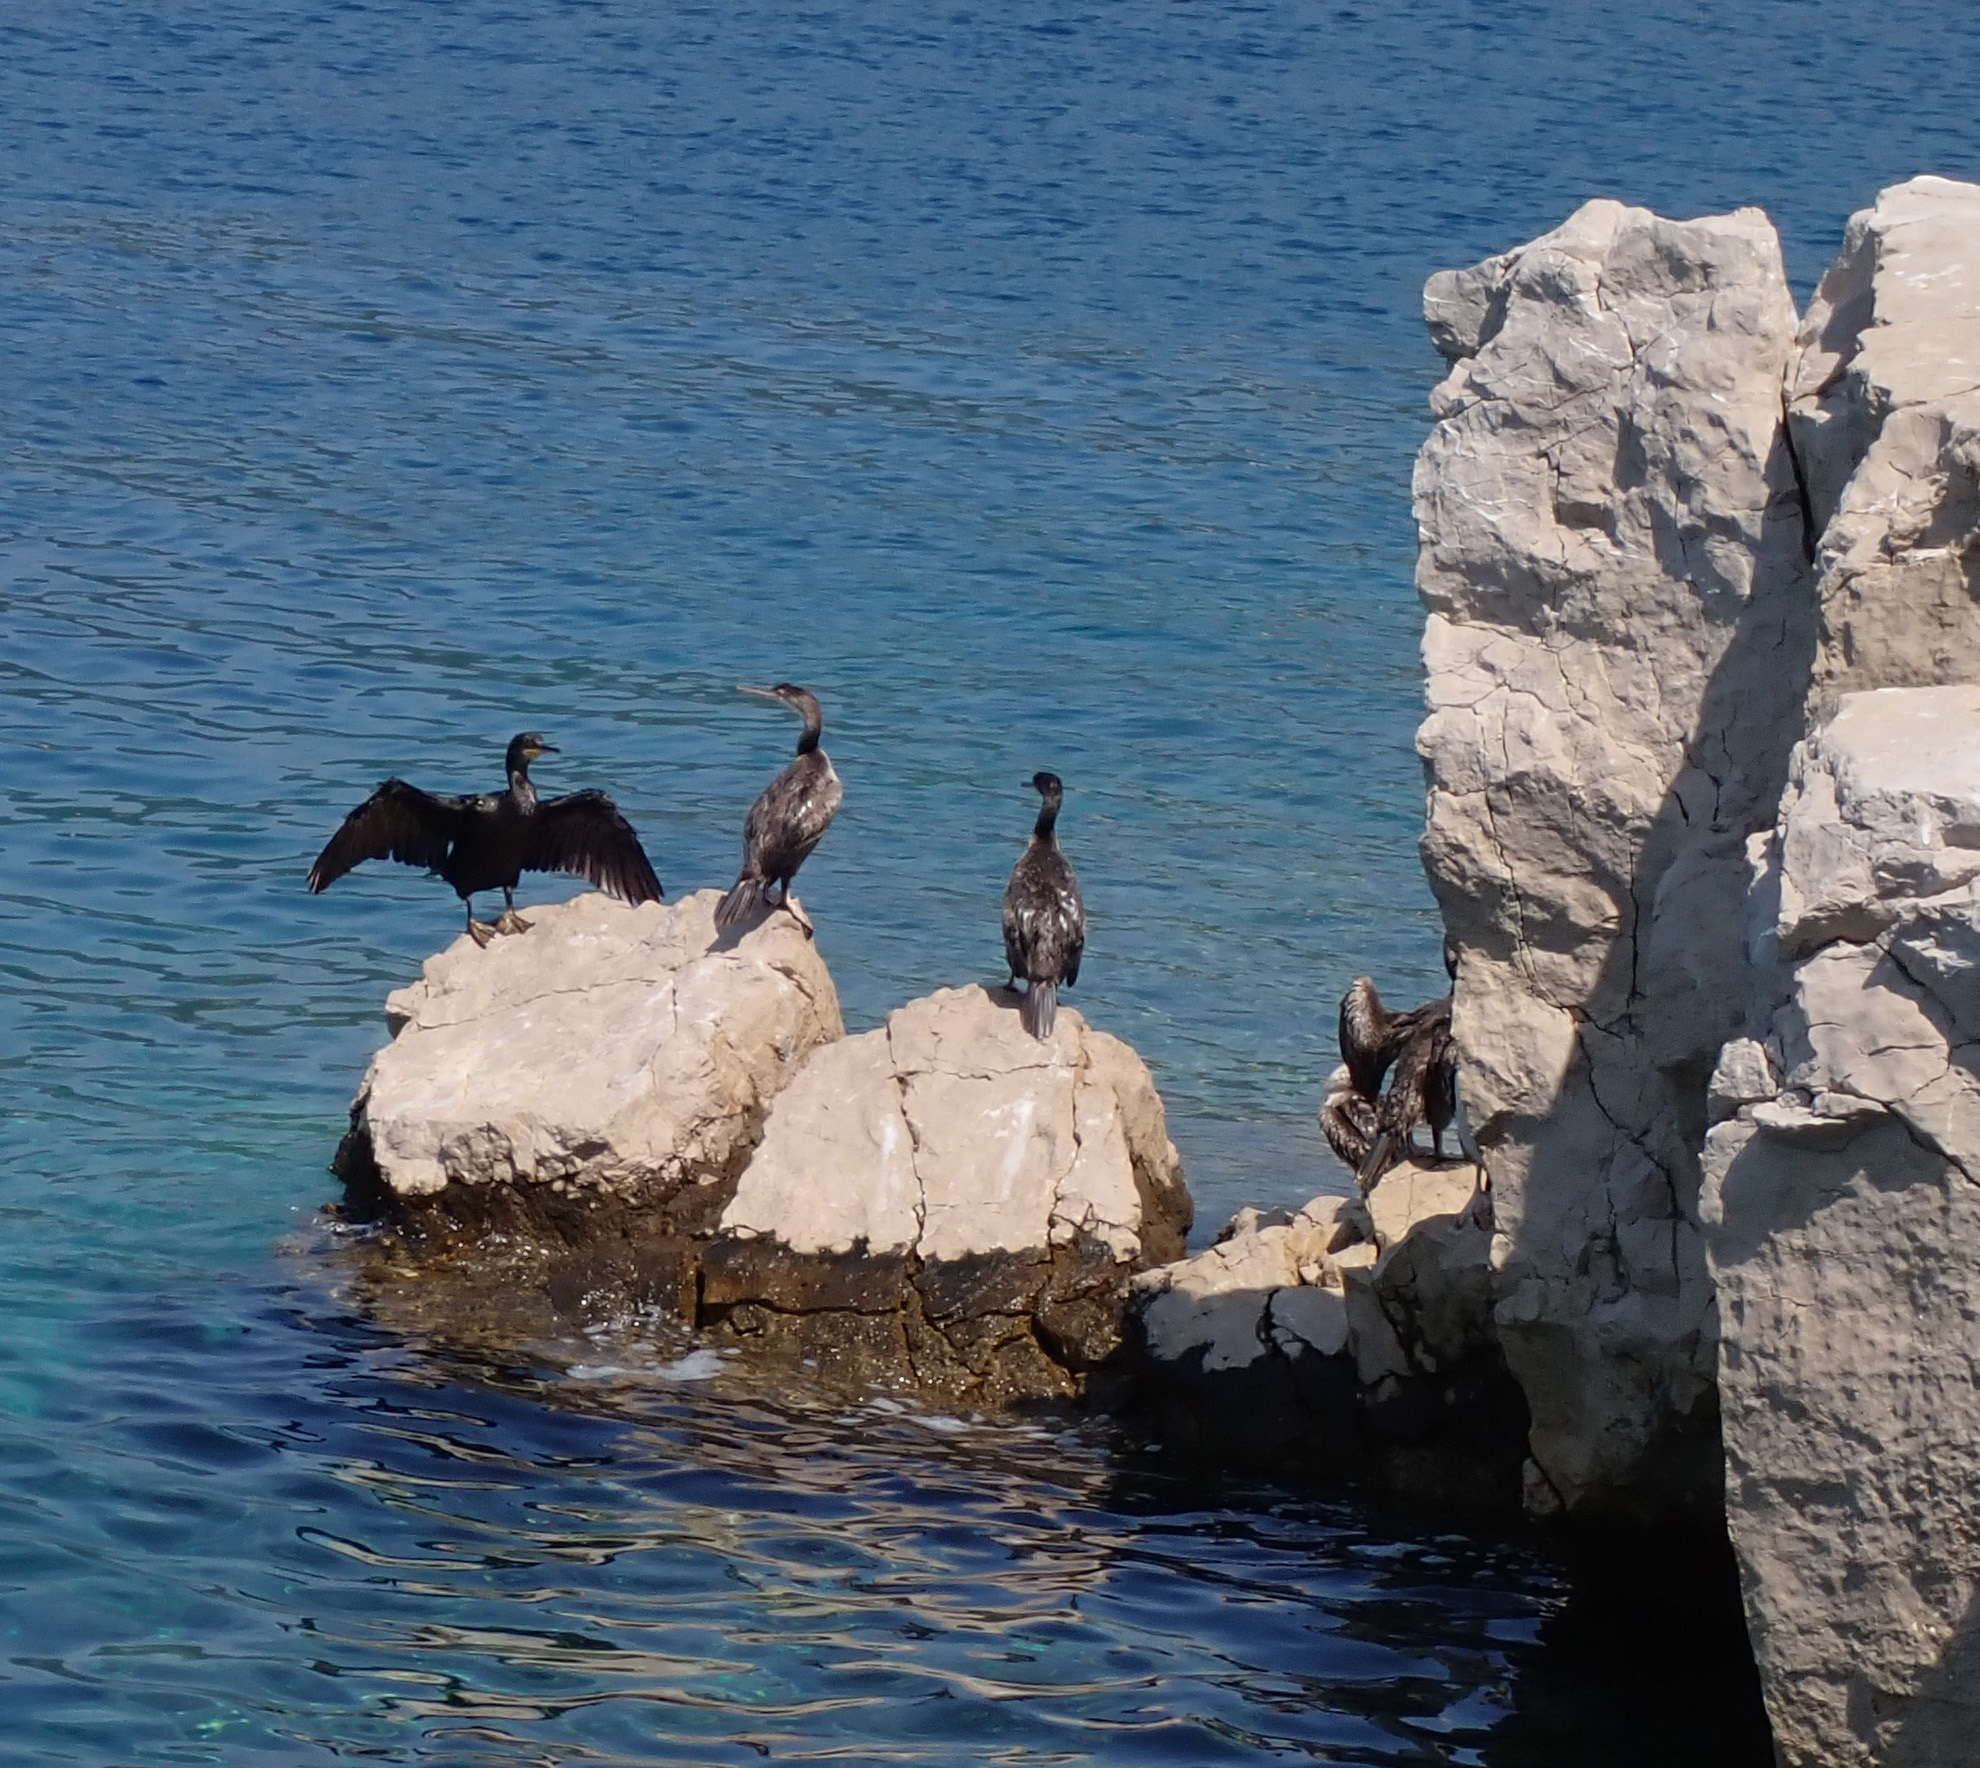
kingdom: Animalia
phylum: Chordata
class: Aves
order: Suliformes
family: Phalacrocoracidae
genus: Phalacrocorax
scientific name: Phalacrocorax aristotelis
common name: European shag
